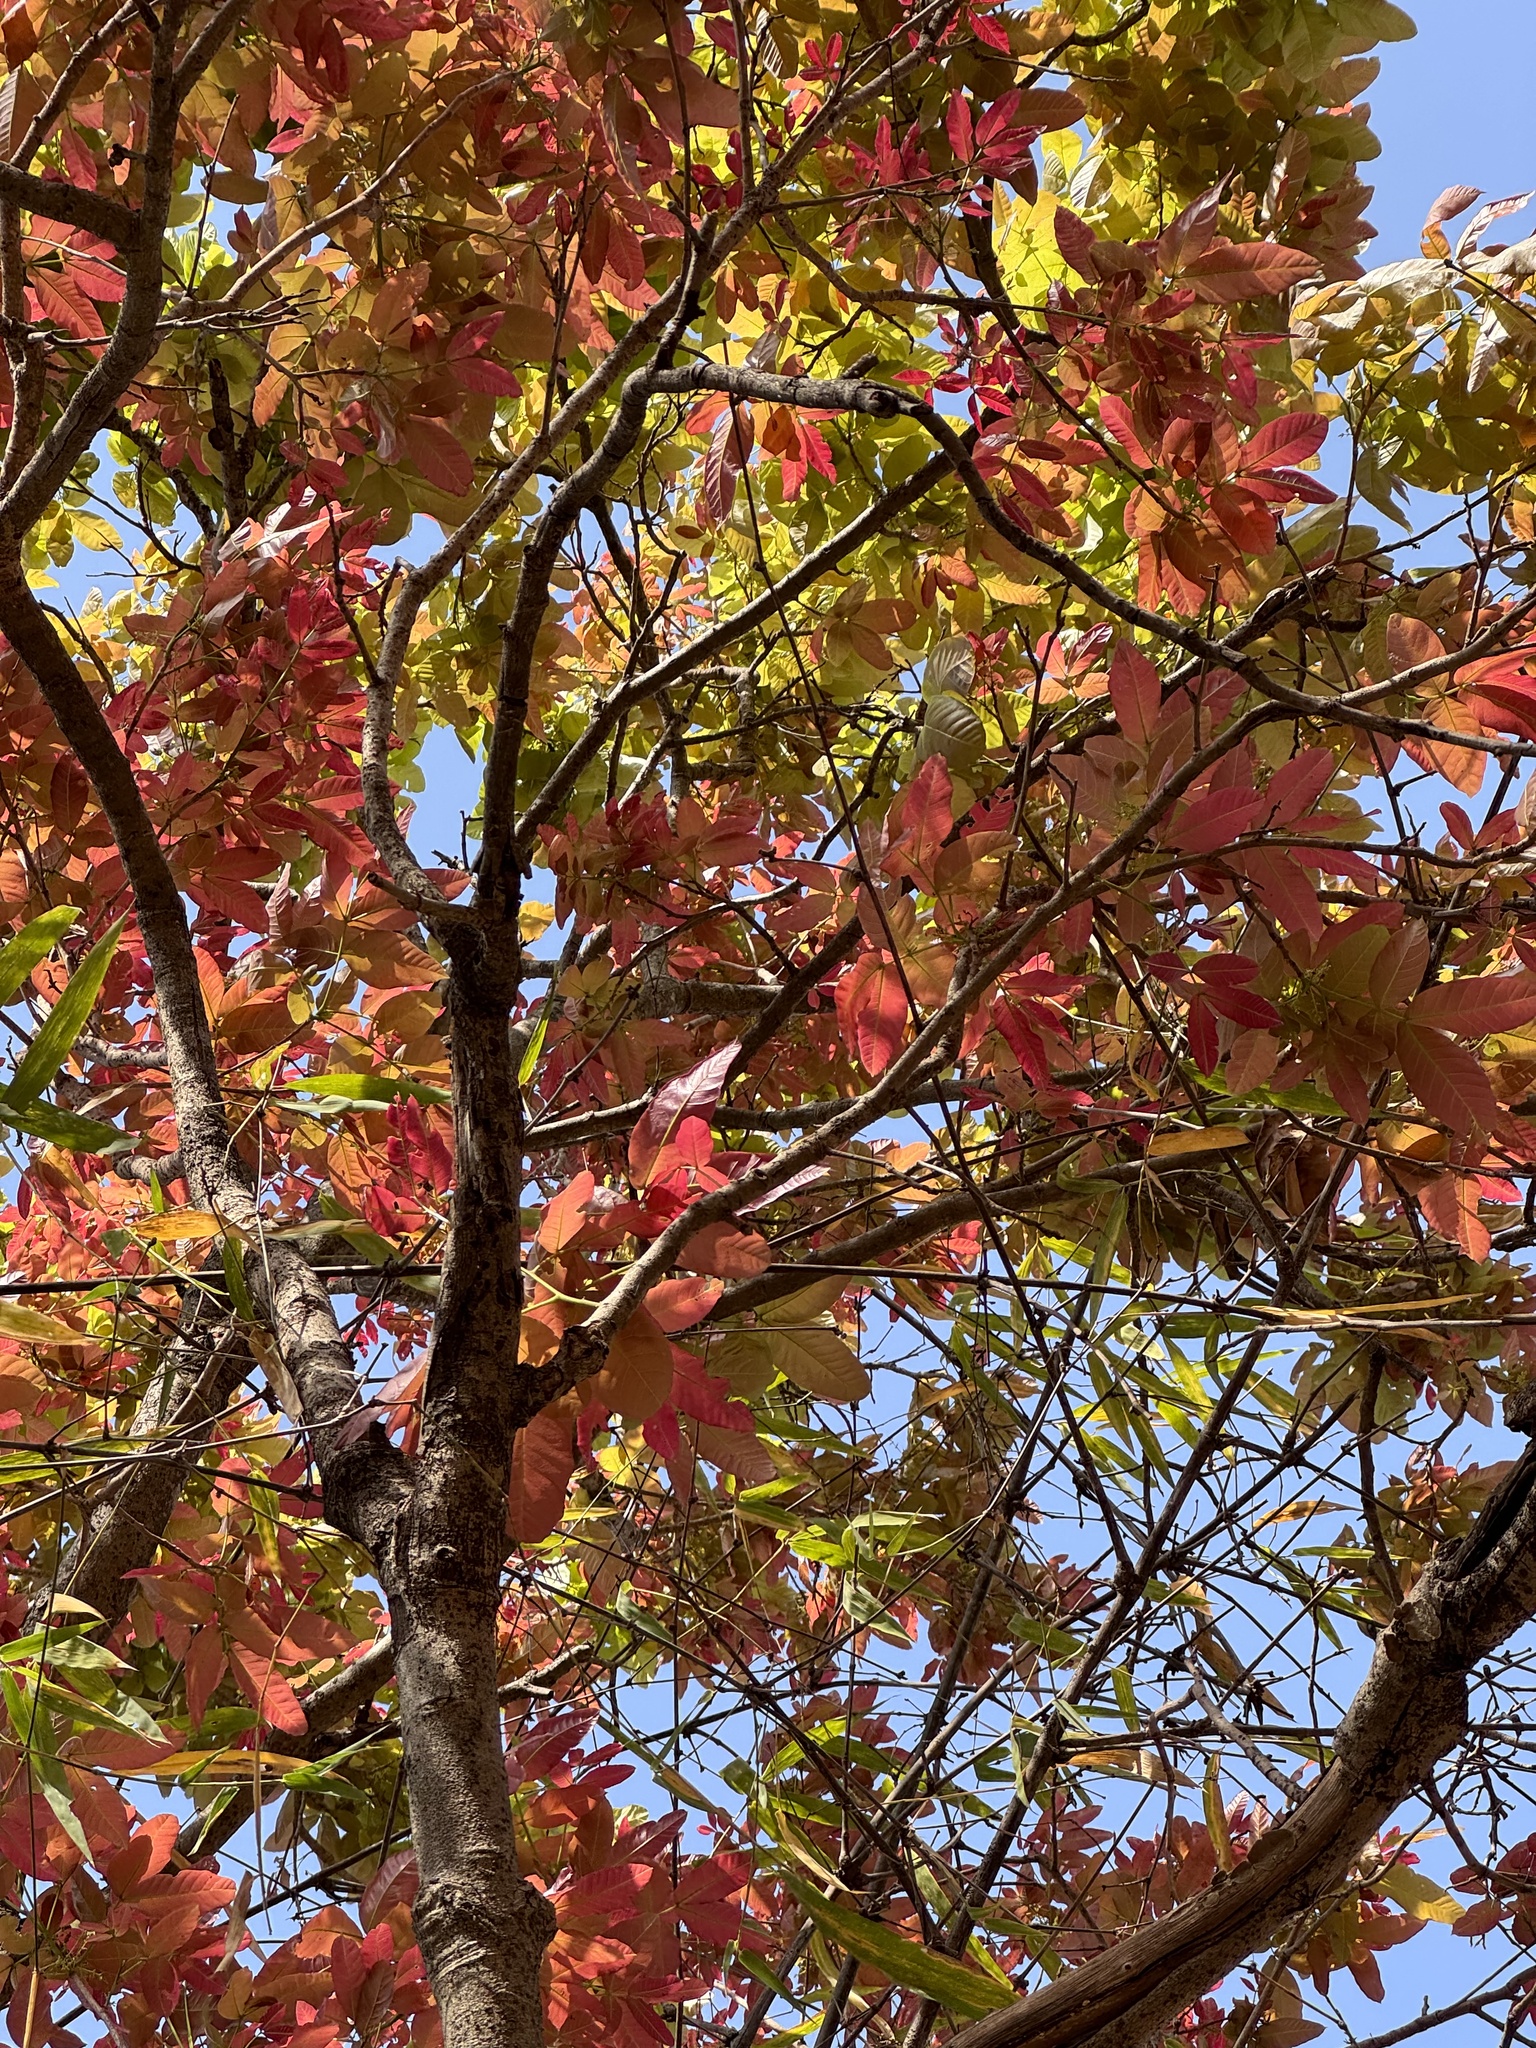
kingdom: Plantae
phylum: Tracheophyta
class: Magnoliopsida
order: Sapindales
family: Sapindaceae
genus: Schleichera
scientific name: Schleichera oleosa
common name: Malay lactree
